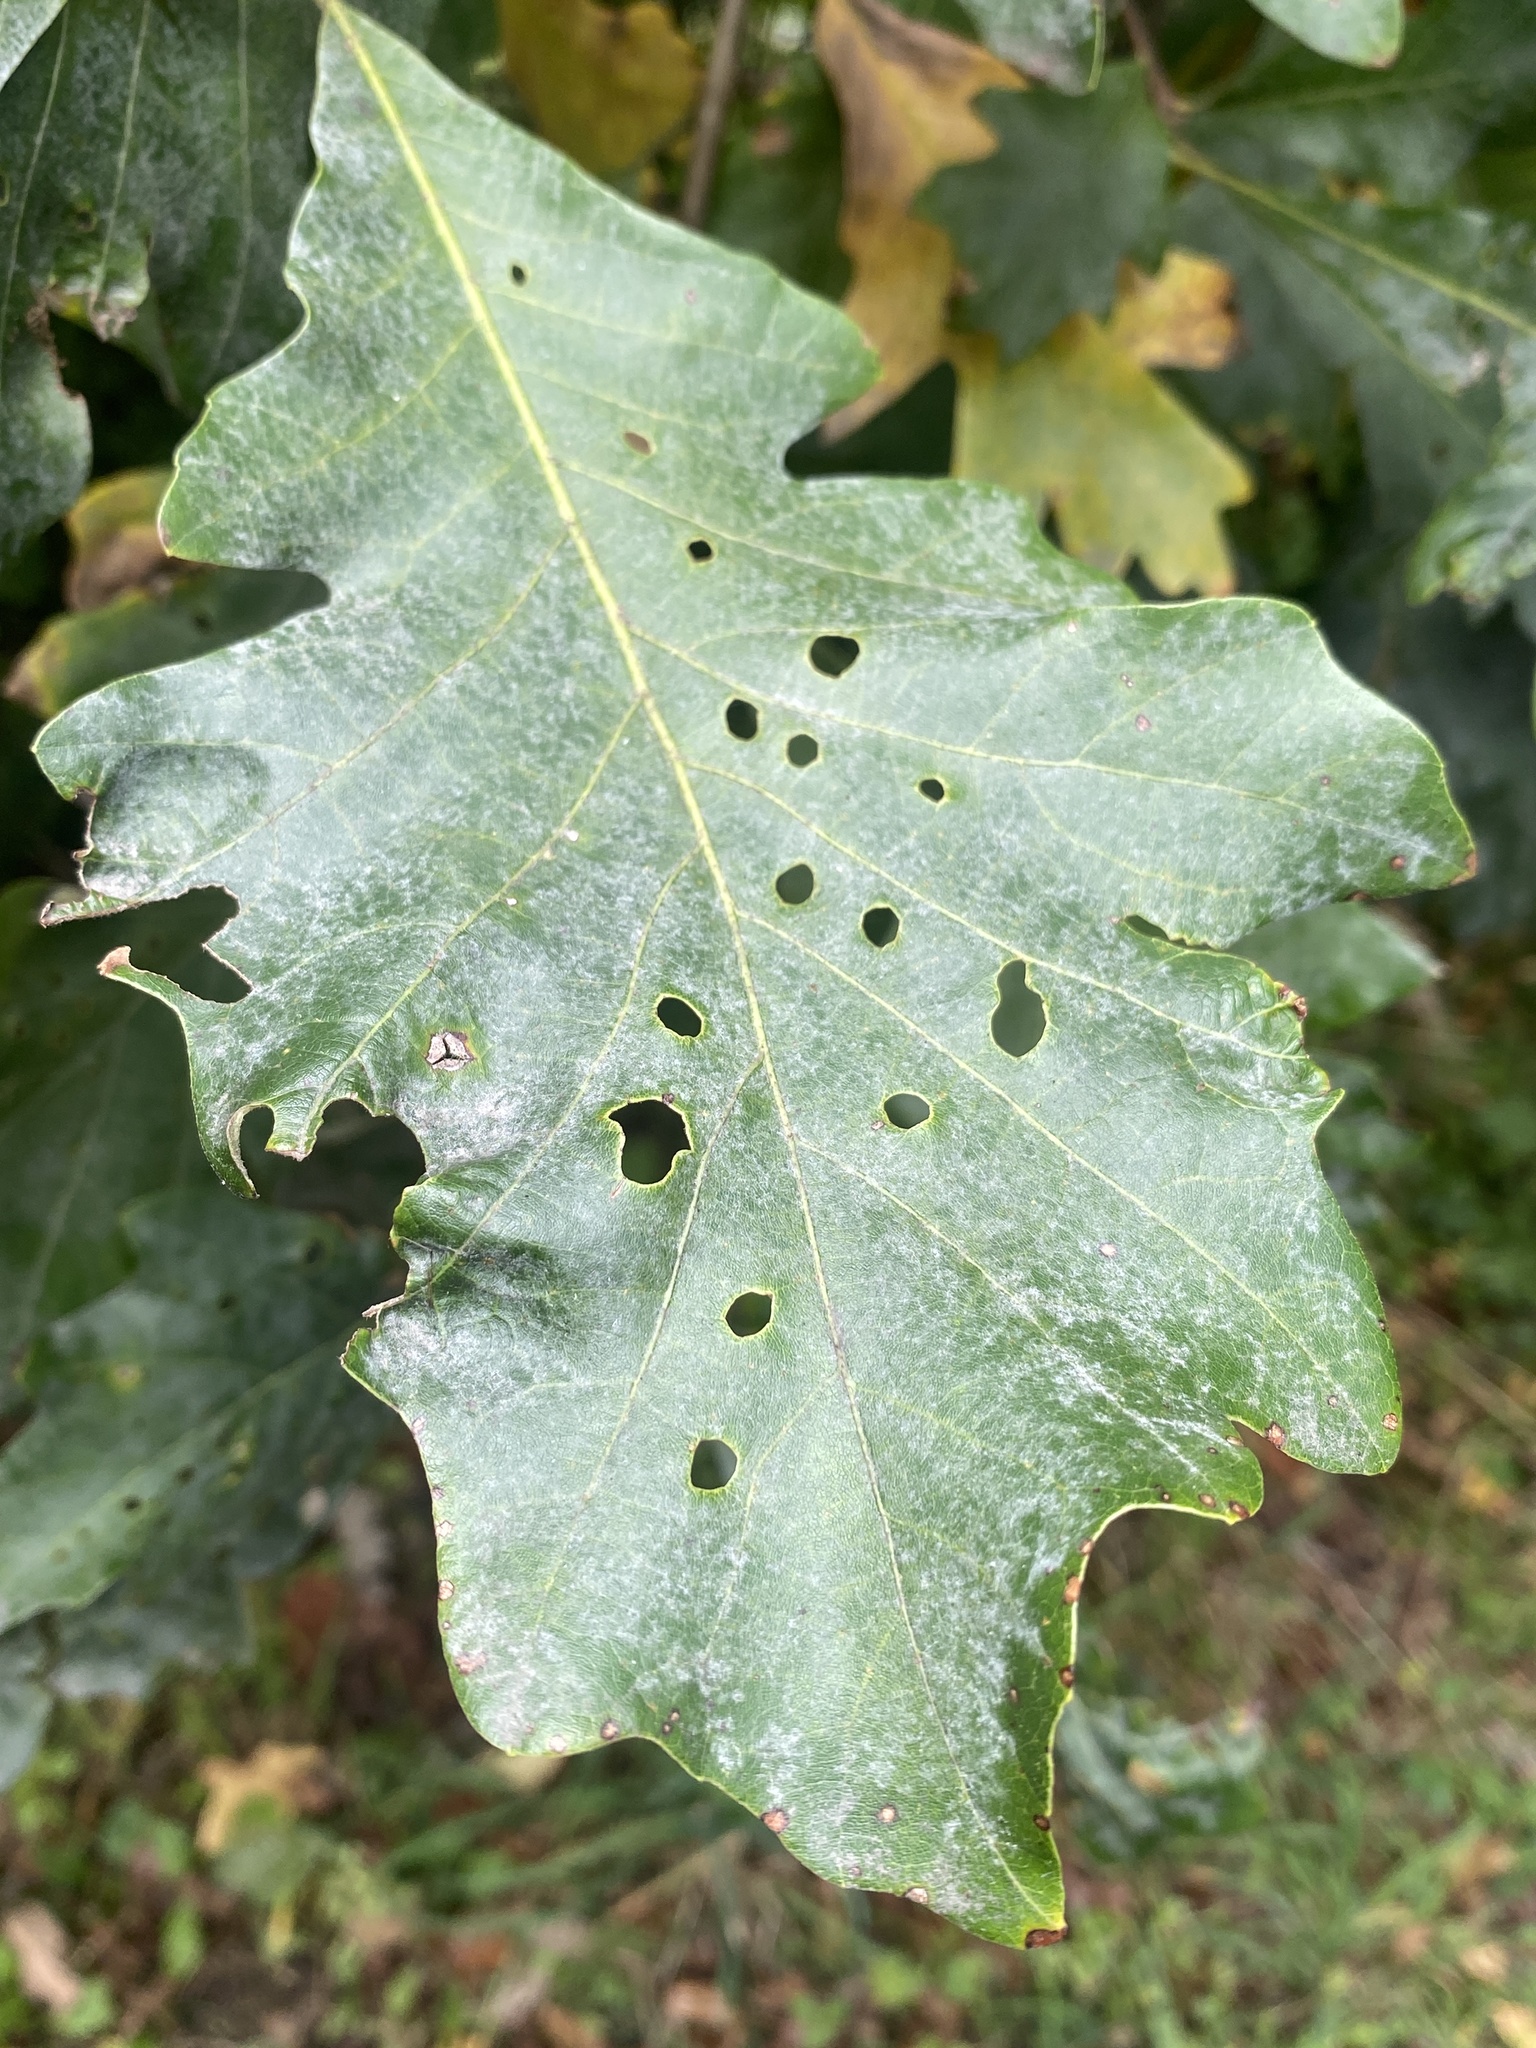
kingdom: Animalia
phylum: Arthropoda
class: Insecta
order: Diptera
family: Agromyzidae
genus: Japanagromyza
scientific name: Japanagromyza viridula
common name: Oak shothole leafminer
